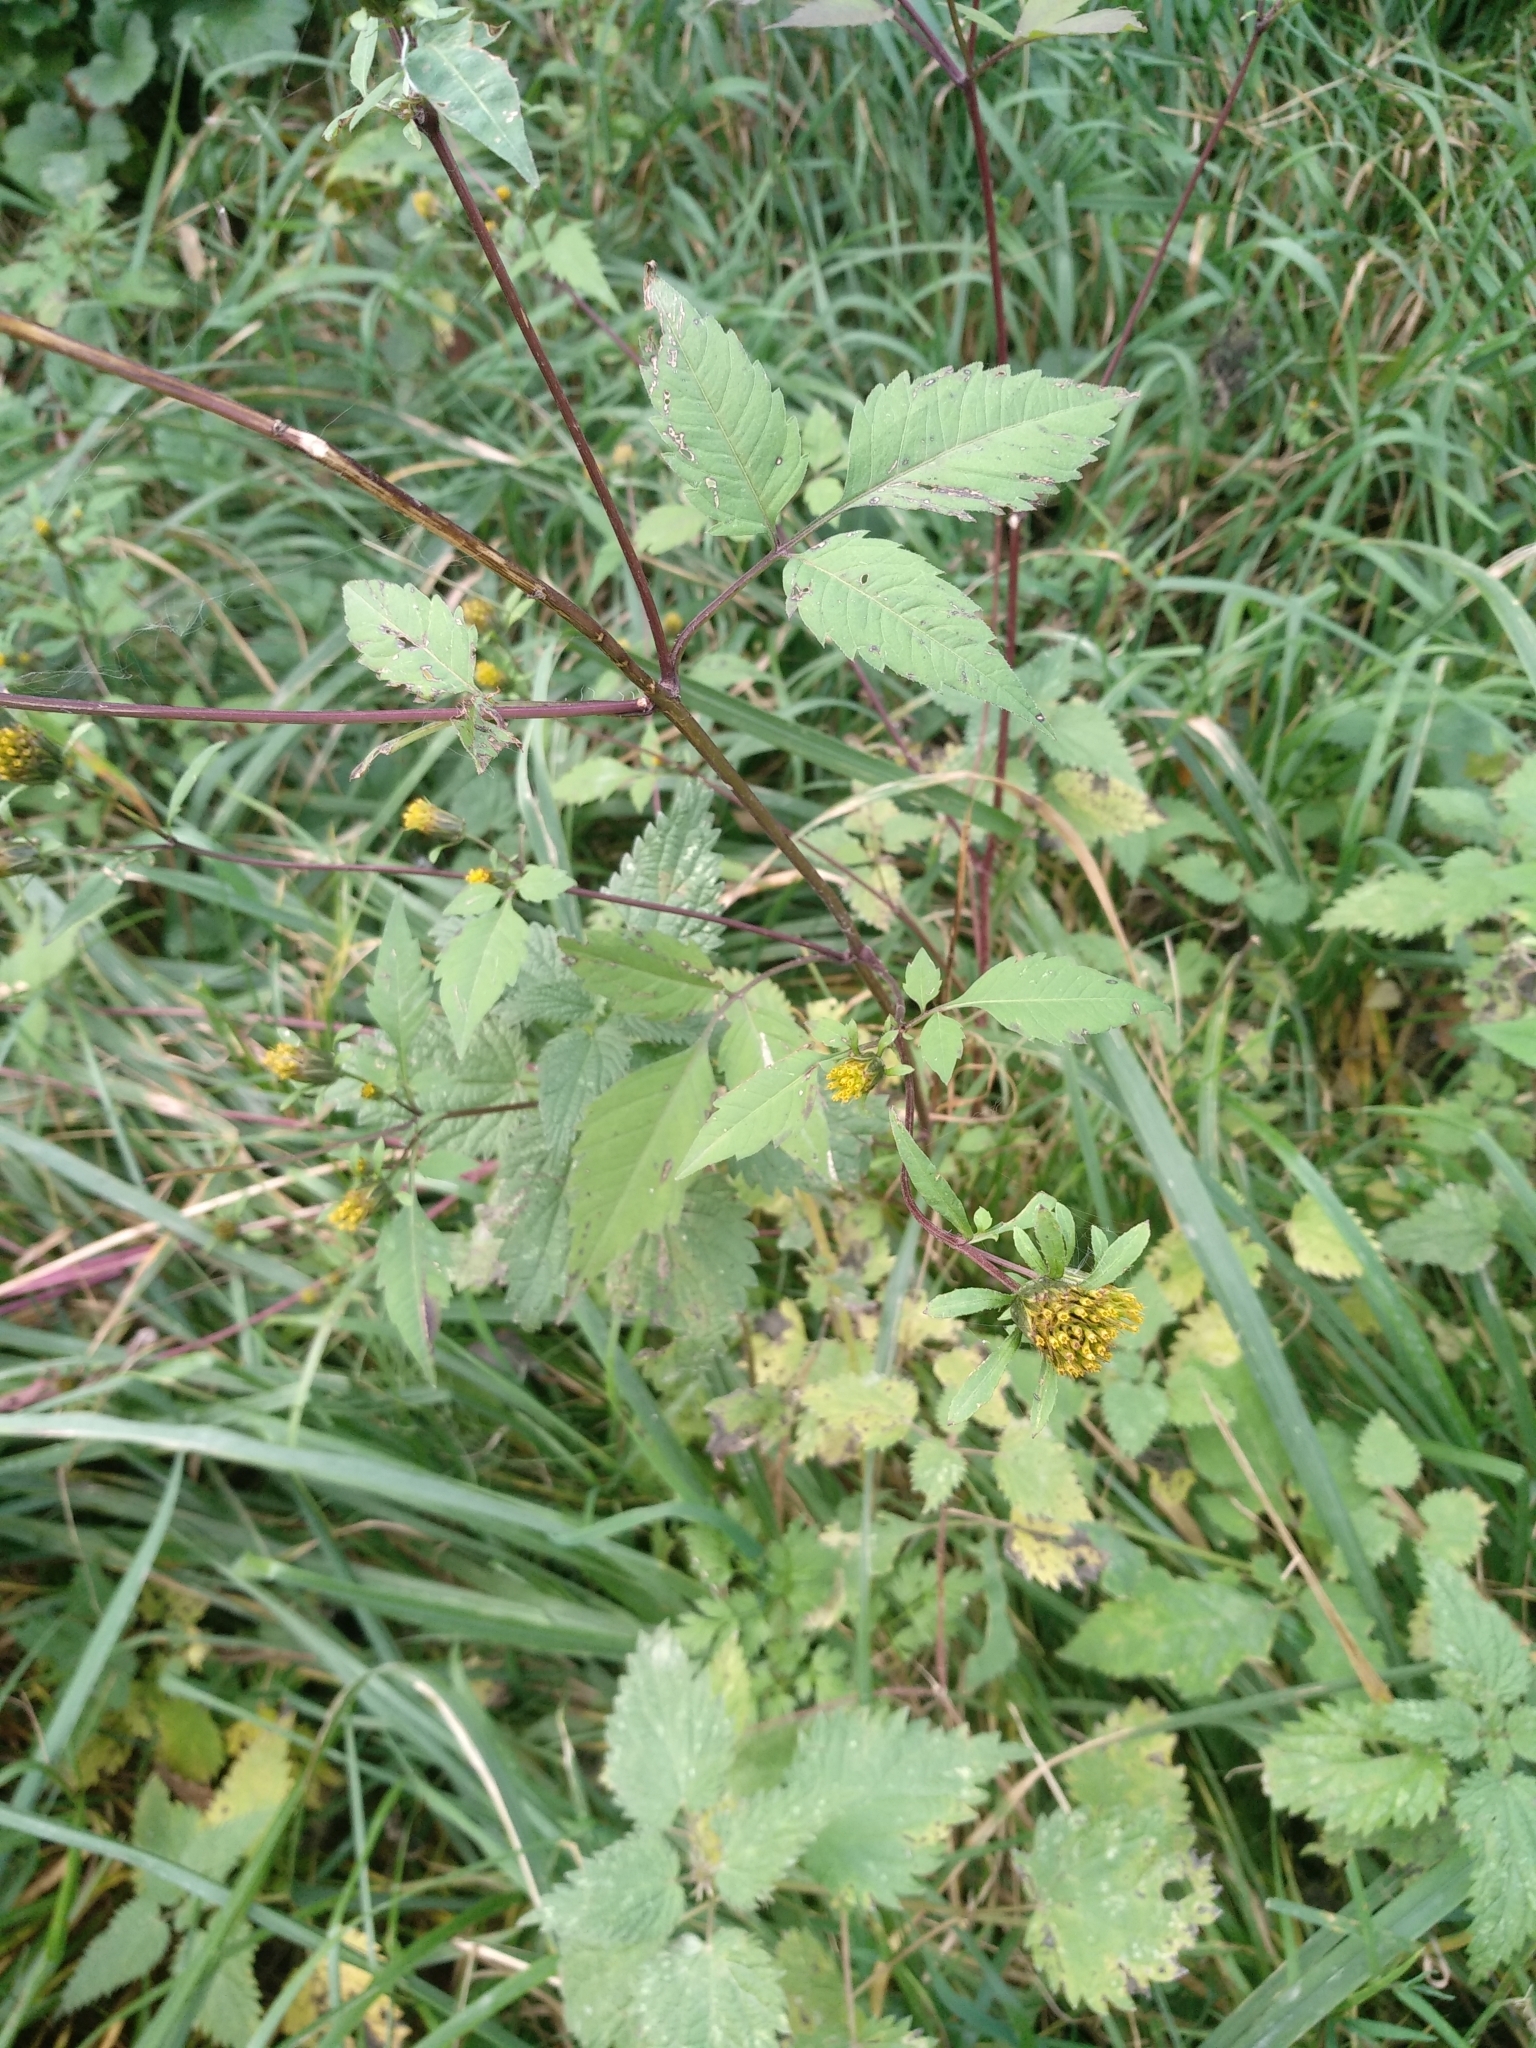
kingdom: Plantae
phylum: Tracheophyta
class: Magnoliopsida
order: Asterales
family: Asteraceae
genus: Bidens
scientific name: Bidens frondosa
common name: Beggarticks
